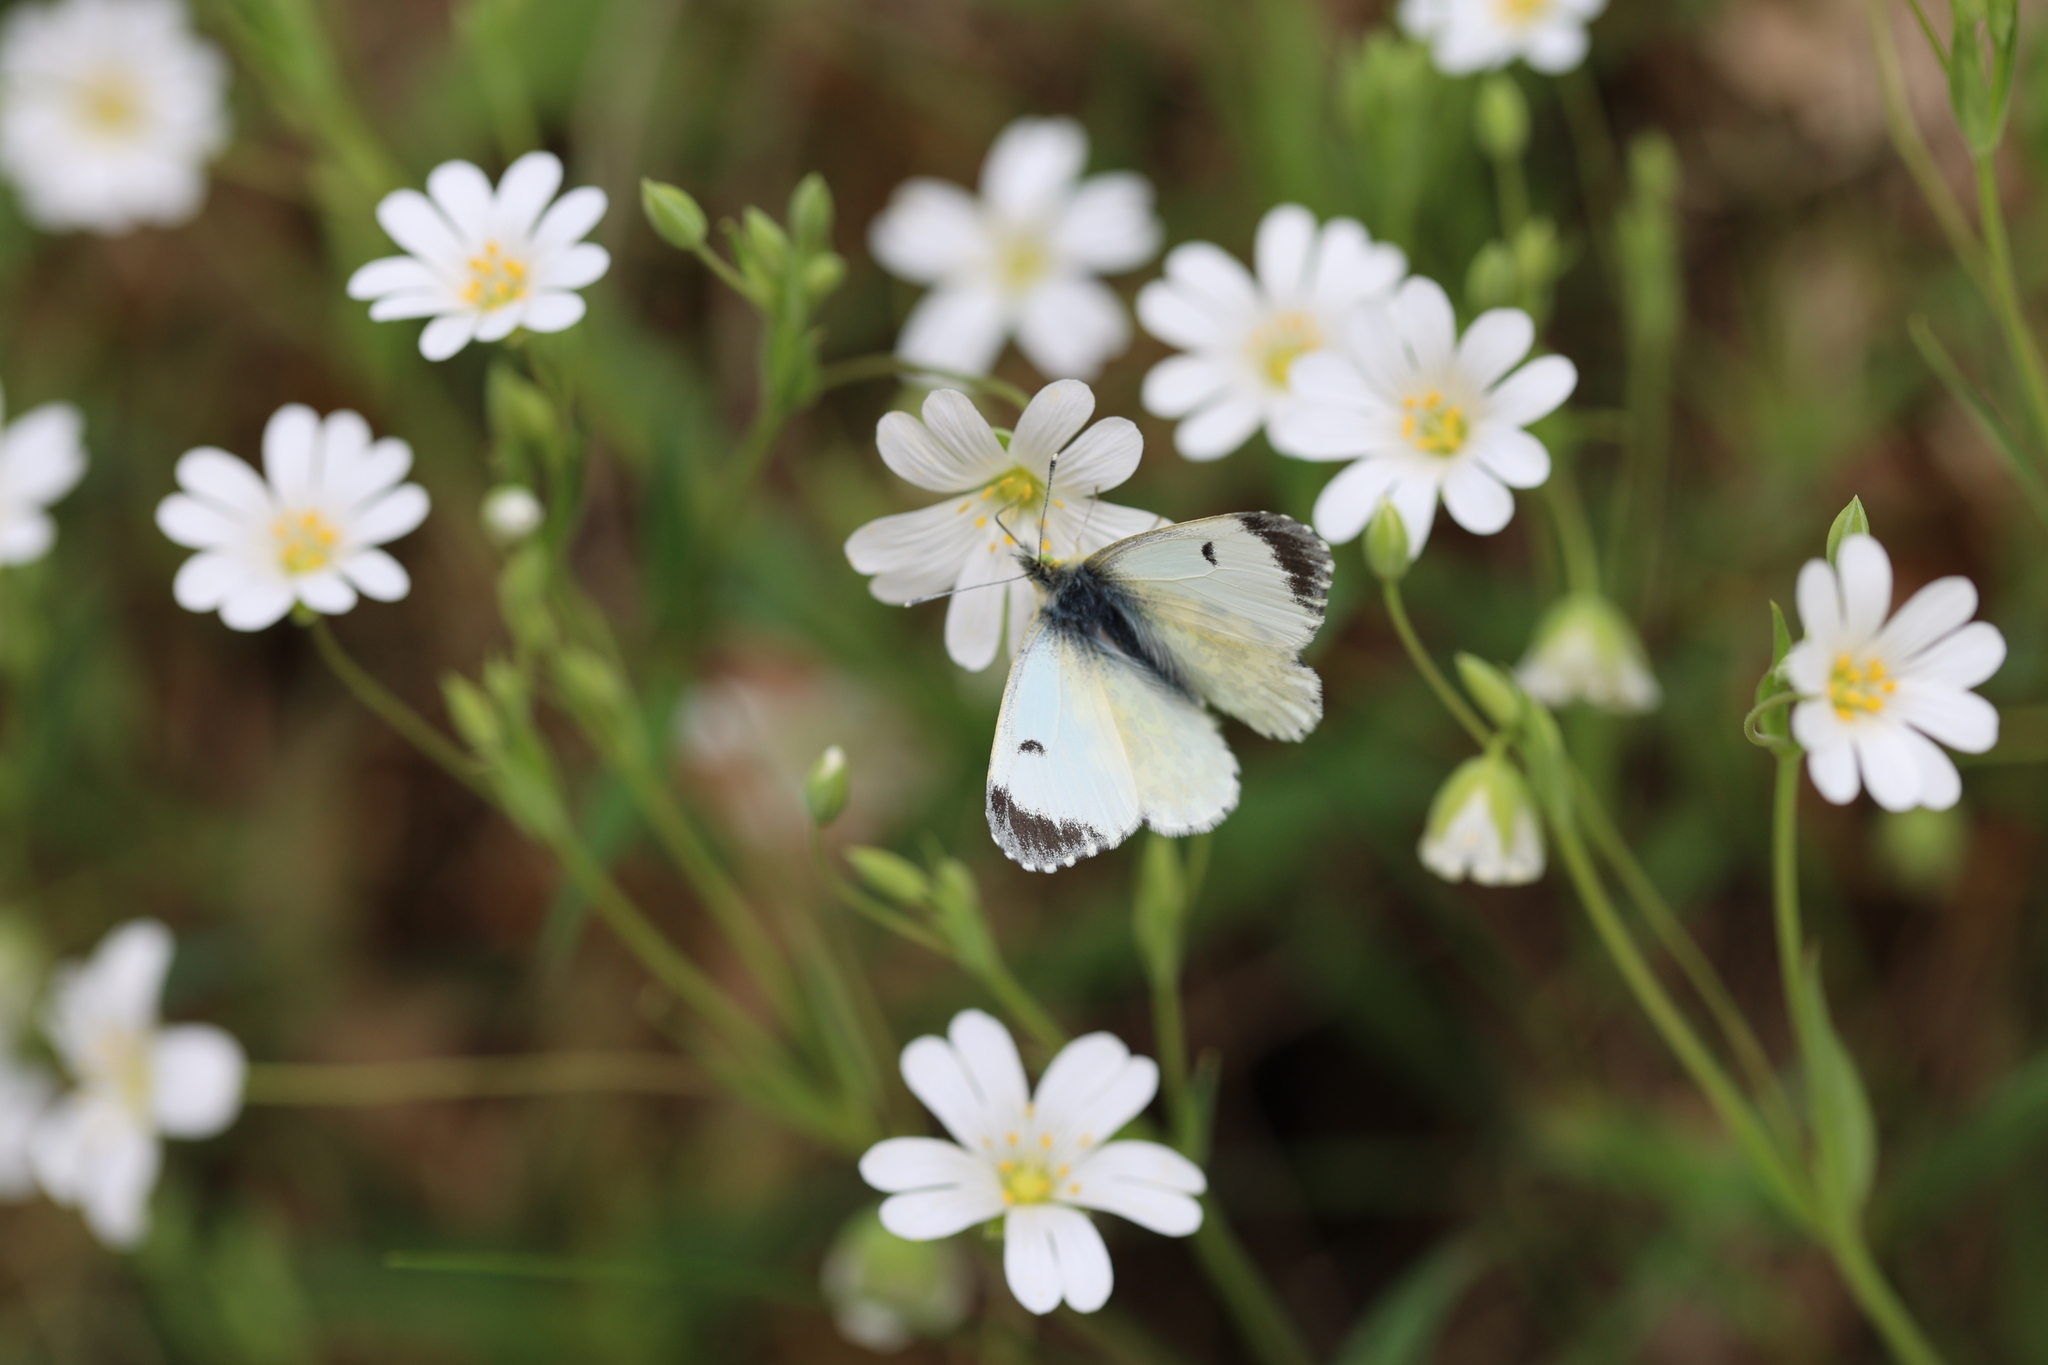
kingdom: Animalia
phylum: Arthropoda
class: Insecta
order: Lepidoptera
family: Pieridae
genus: Anthocharis
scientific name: Anthocharis cardamines
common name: Orange-tip
